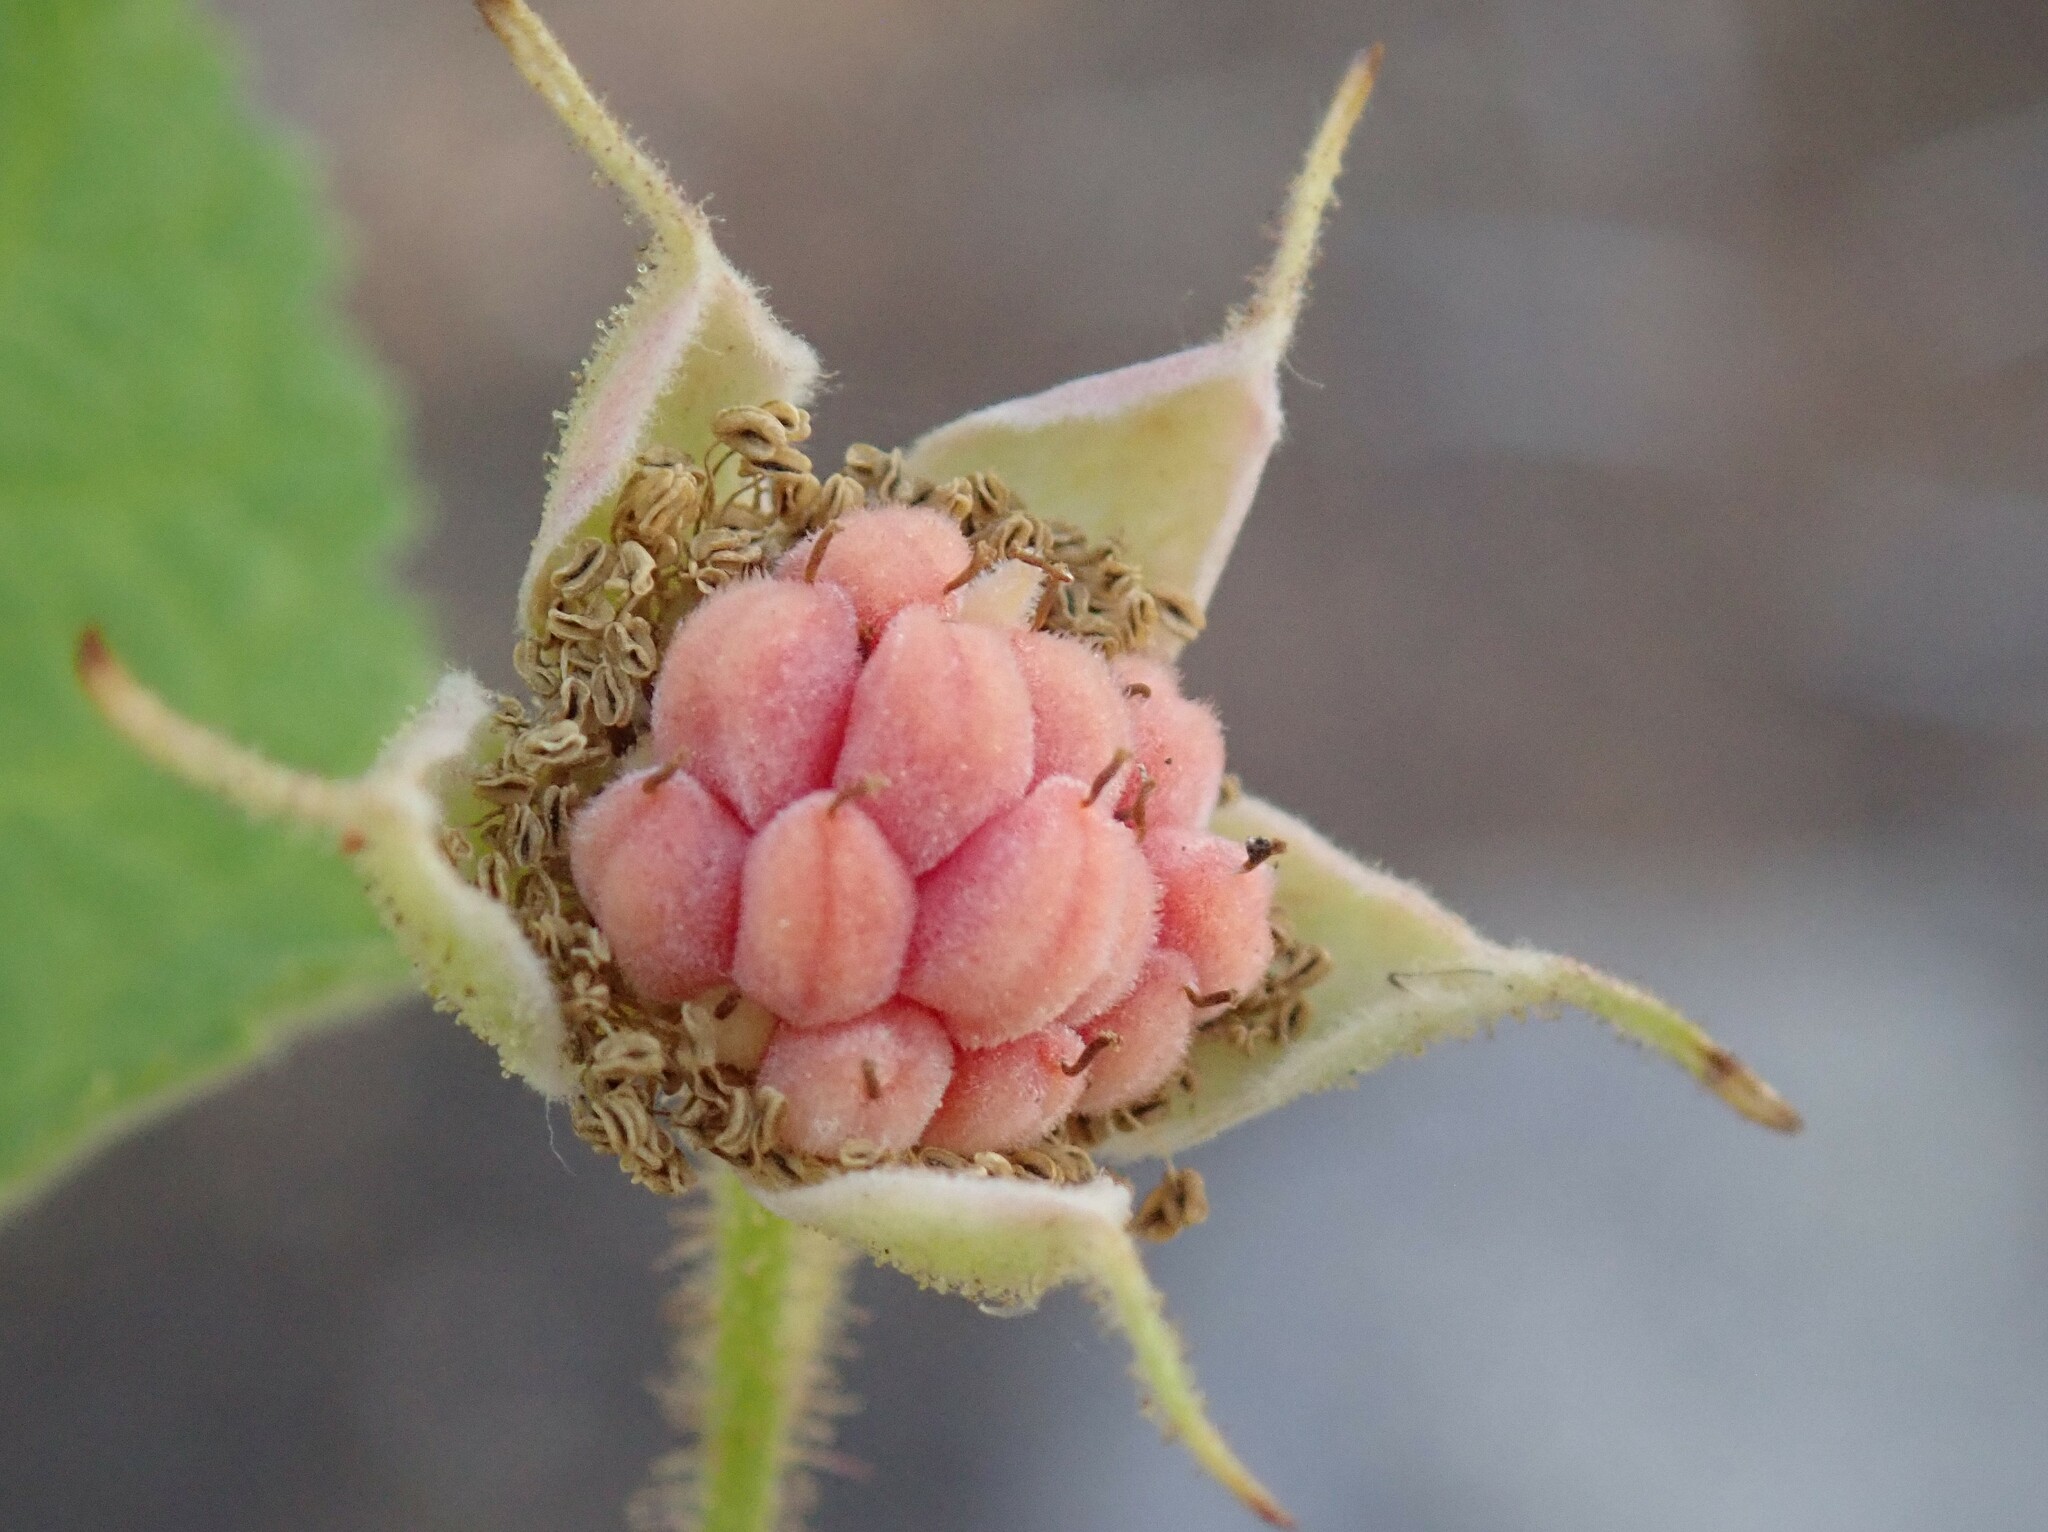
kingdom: Plantae
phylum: Tracheophyta
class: Magnoliopsida
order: Rosales
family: Rosaceae
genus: Rubus
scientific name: Rubus parviflorus
